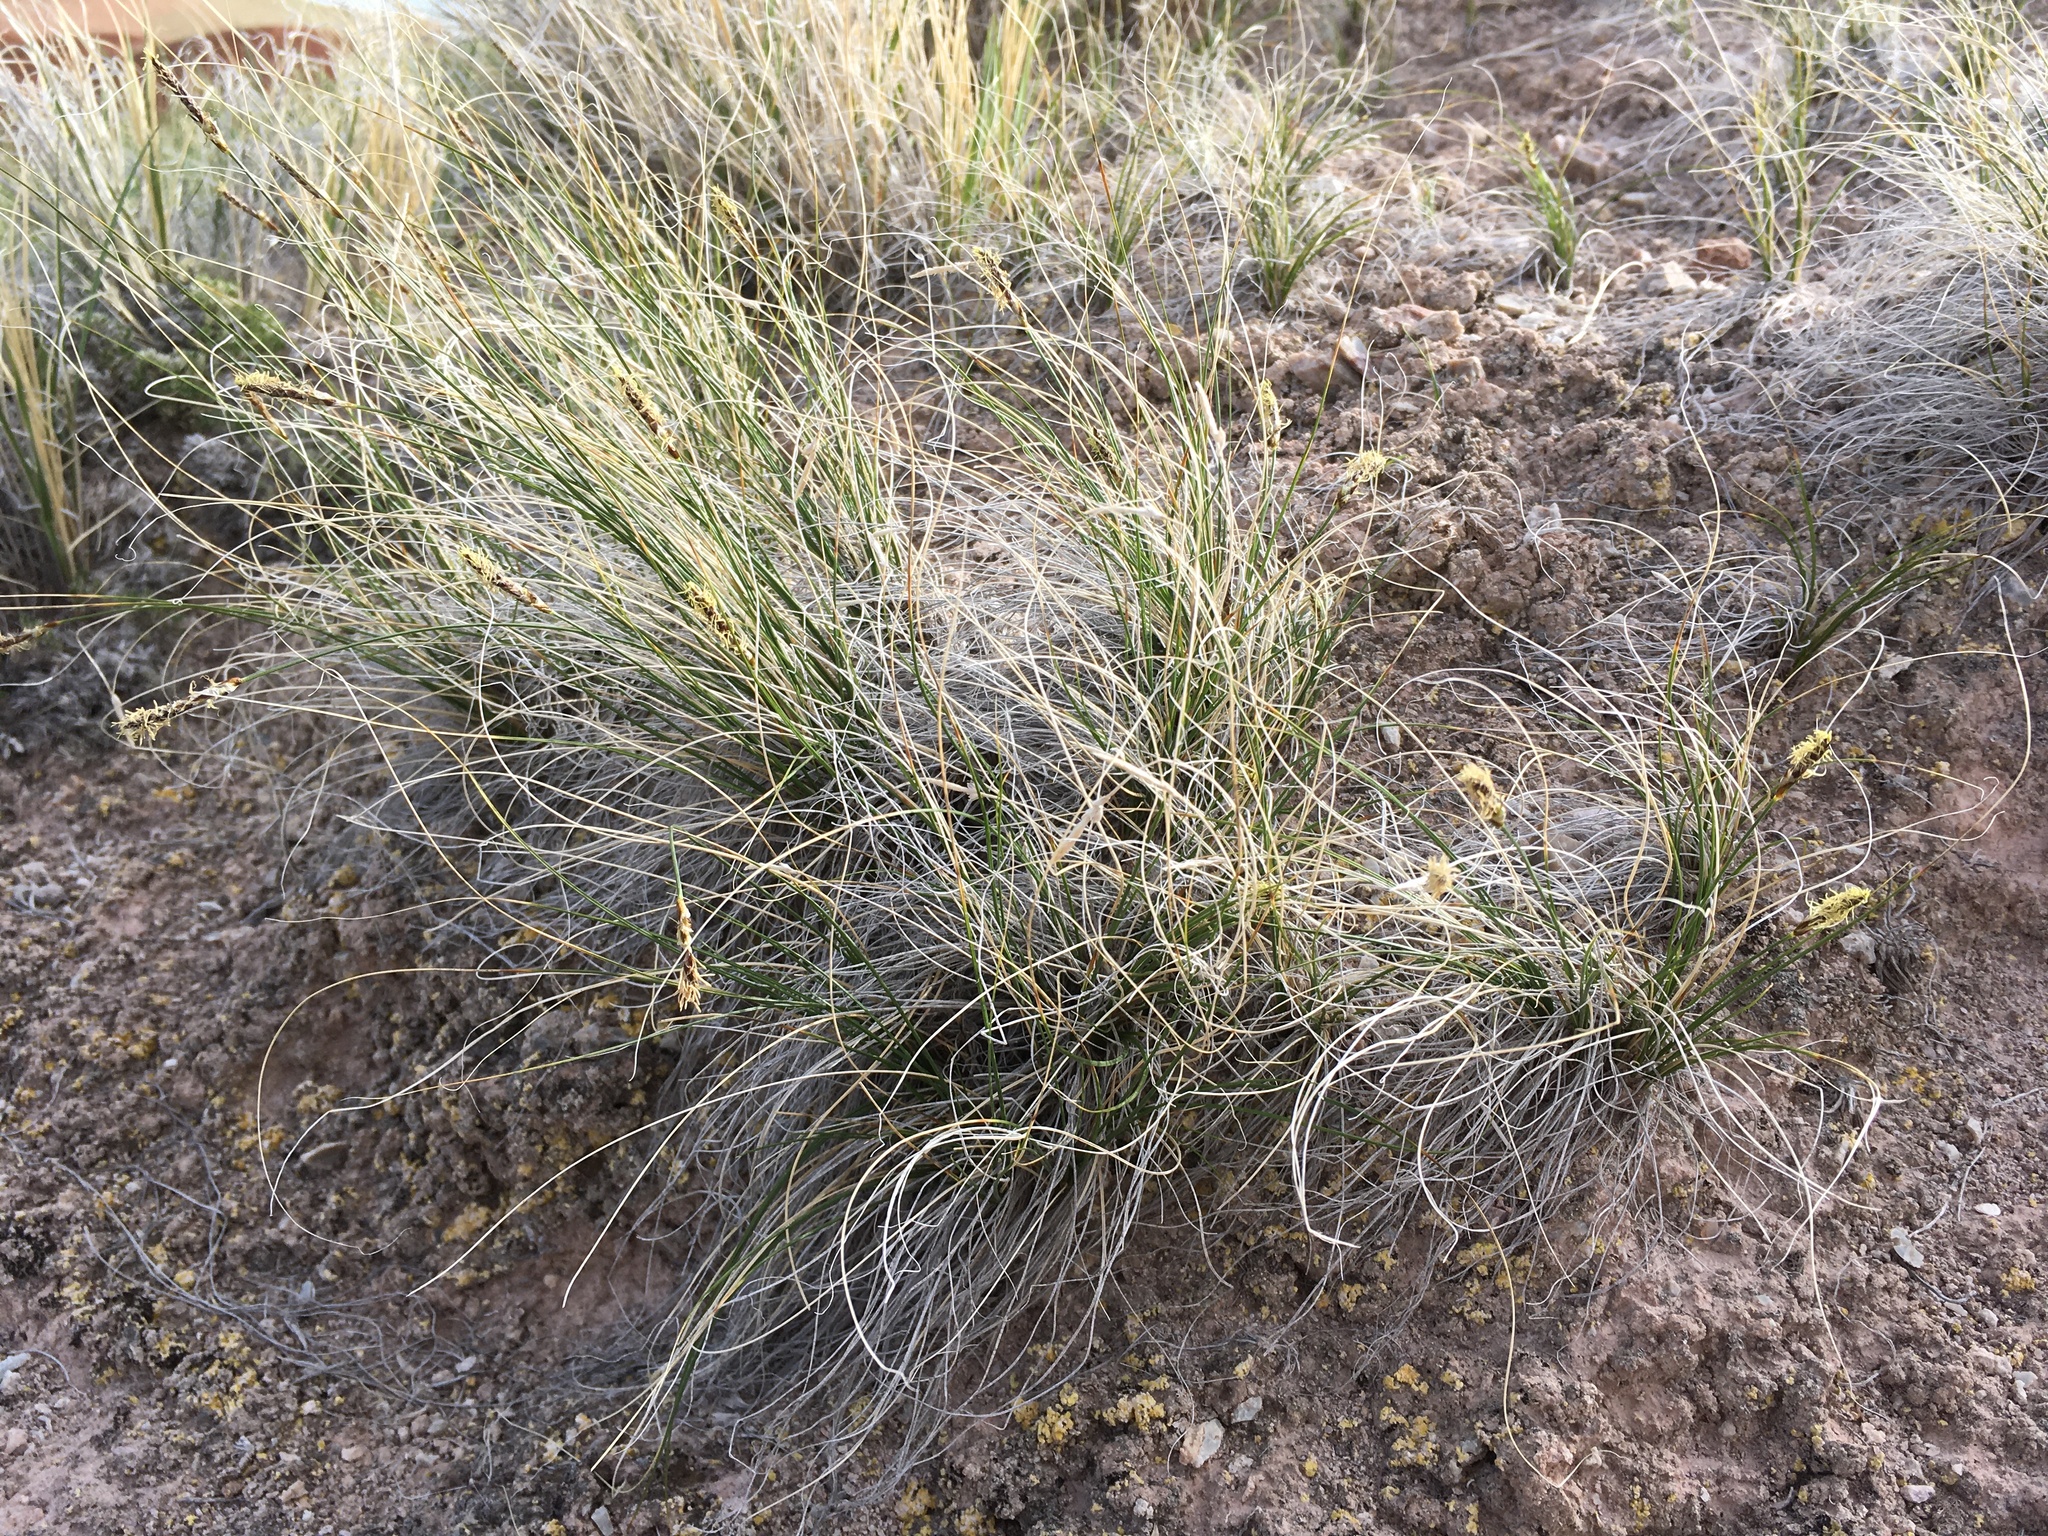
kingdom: Plantae
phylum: Tracheophyta
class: Liliopsida
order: Poales
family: Cyperaceae
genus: Carex
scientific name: Carex filifolia
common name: Threadleaf sedge
